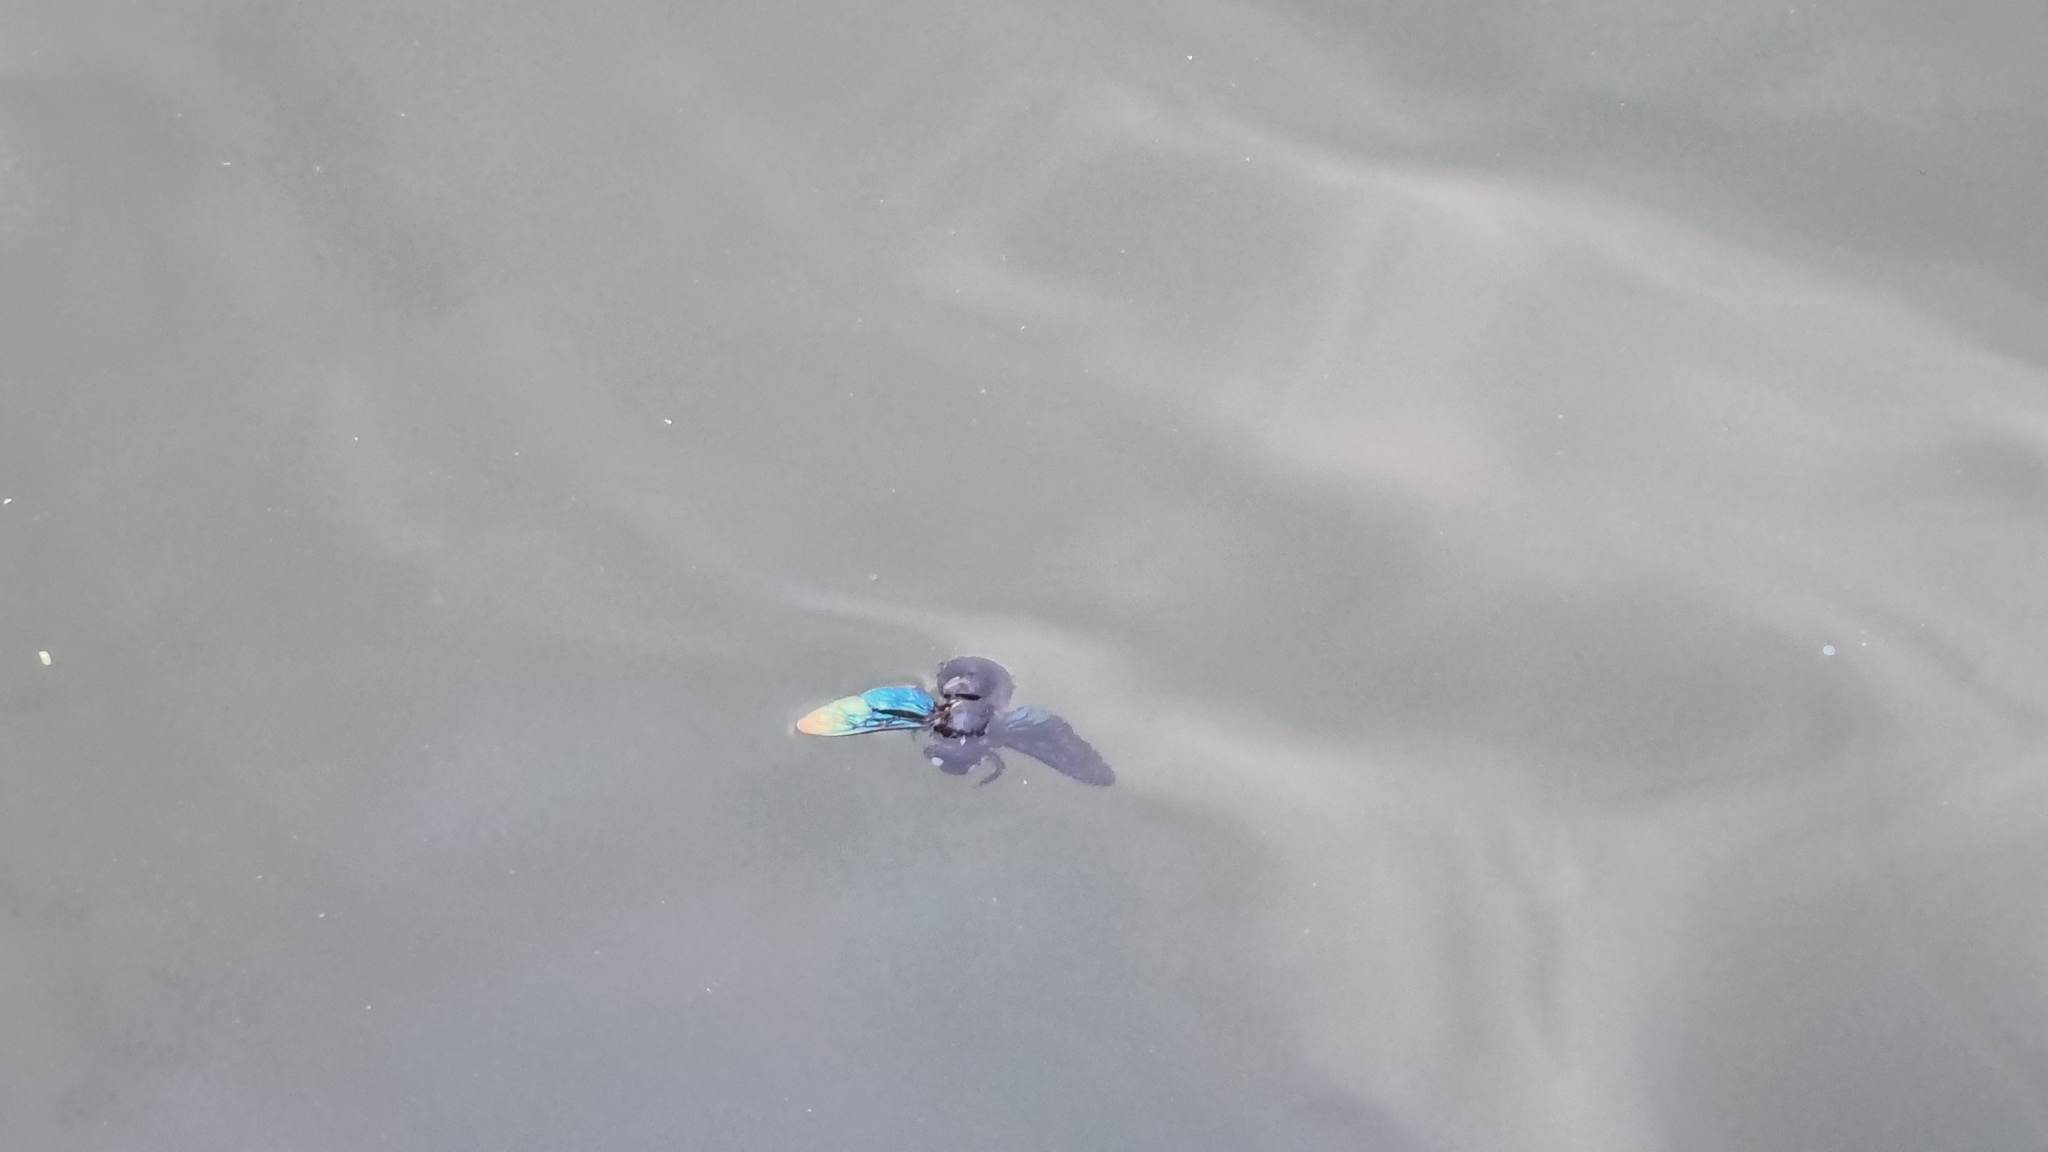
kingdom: Animalia
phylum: Arthropoda
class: Insecta
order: Hymenoptera
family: Apidae
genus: Xylocopa
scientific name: Xylocopa tenuiscapa
